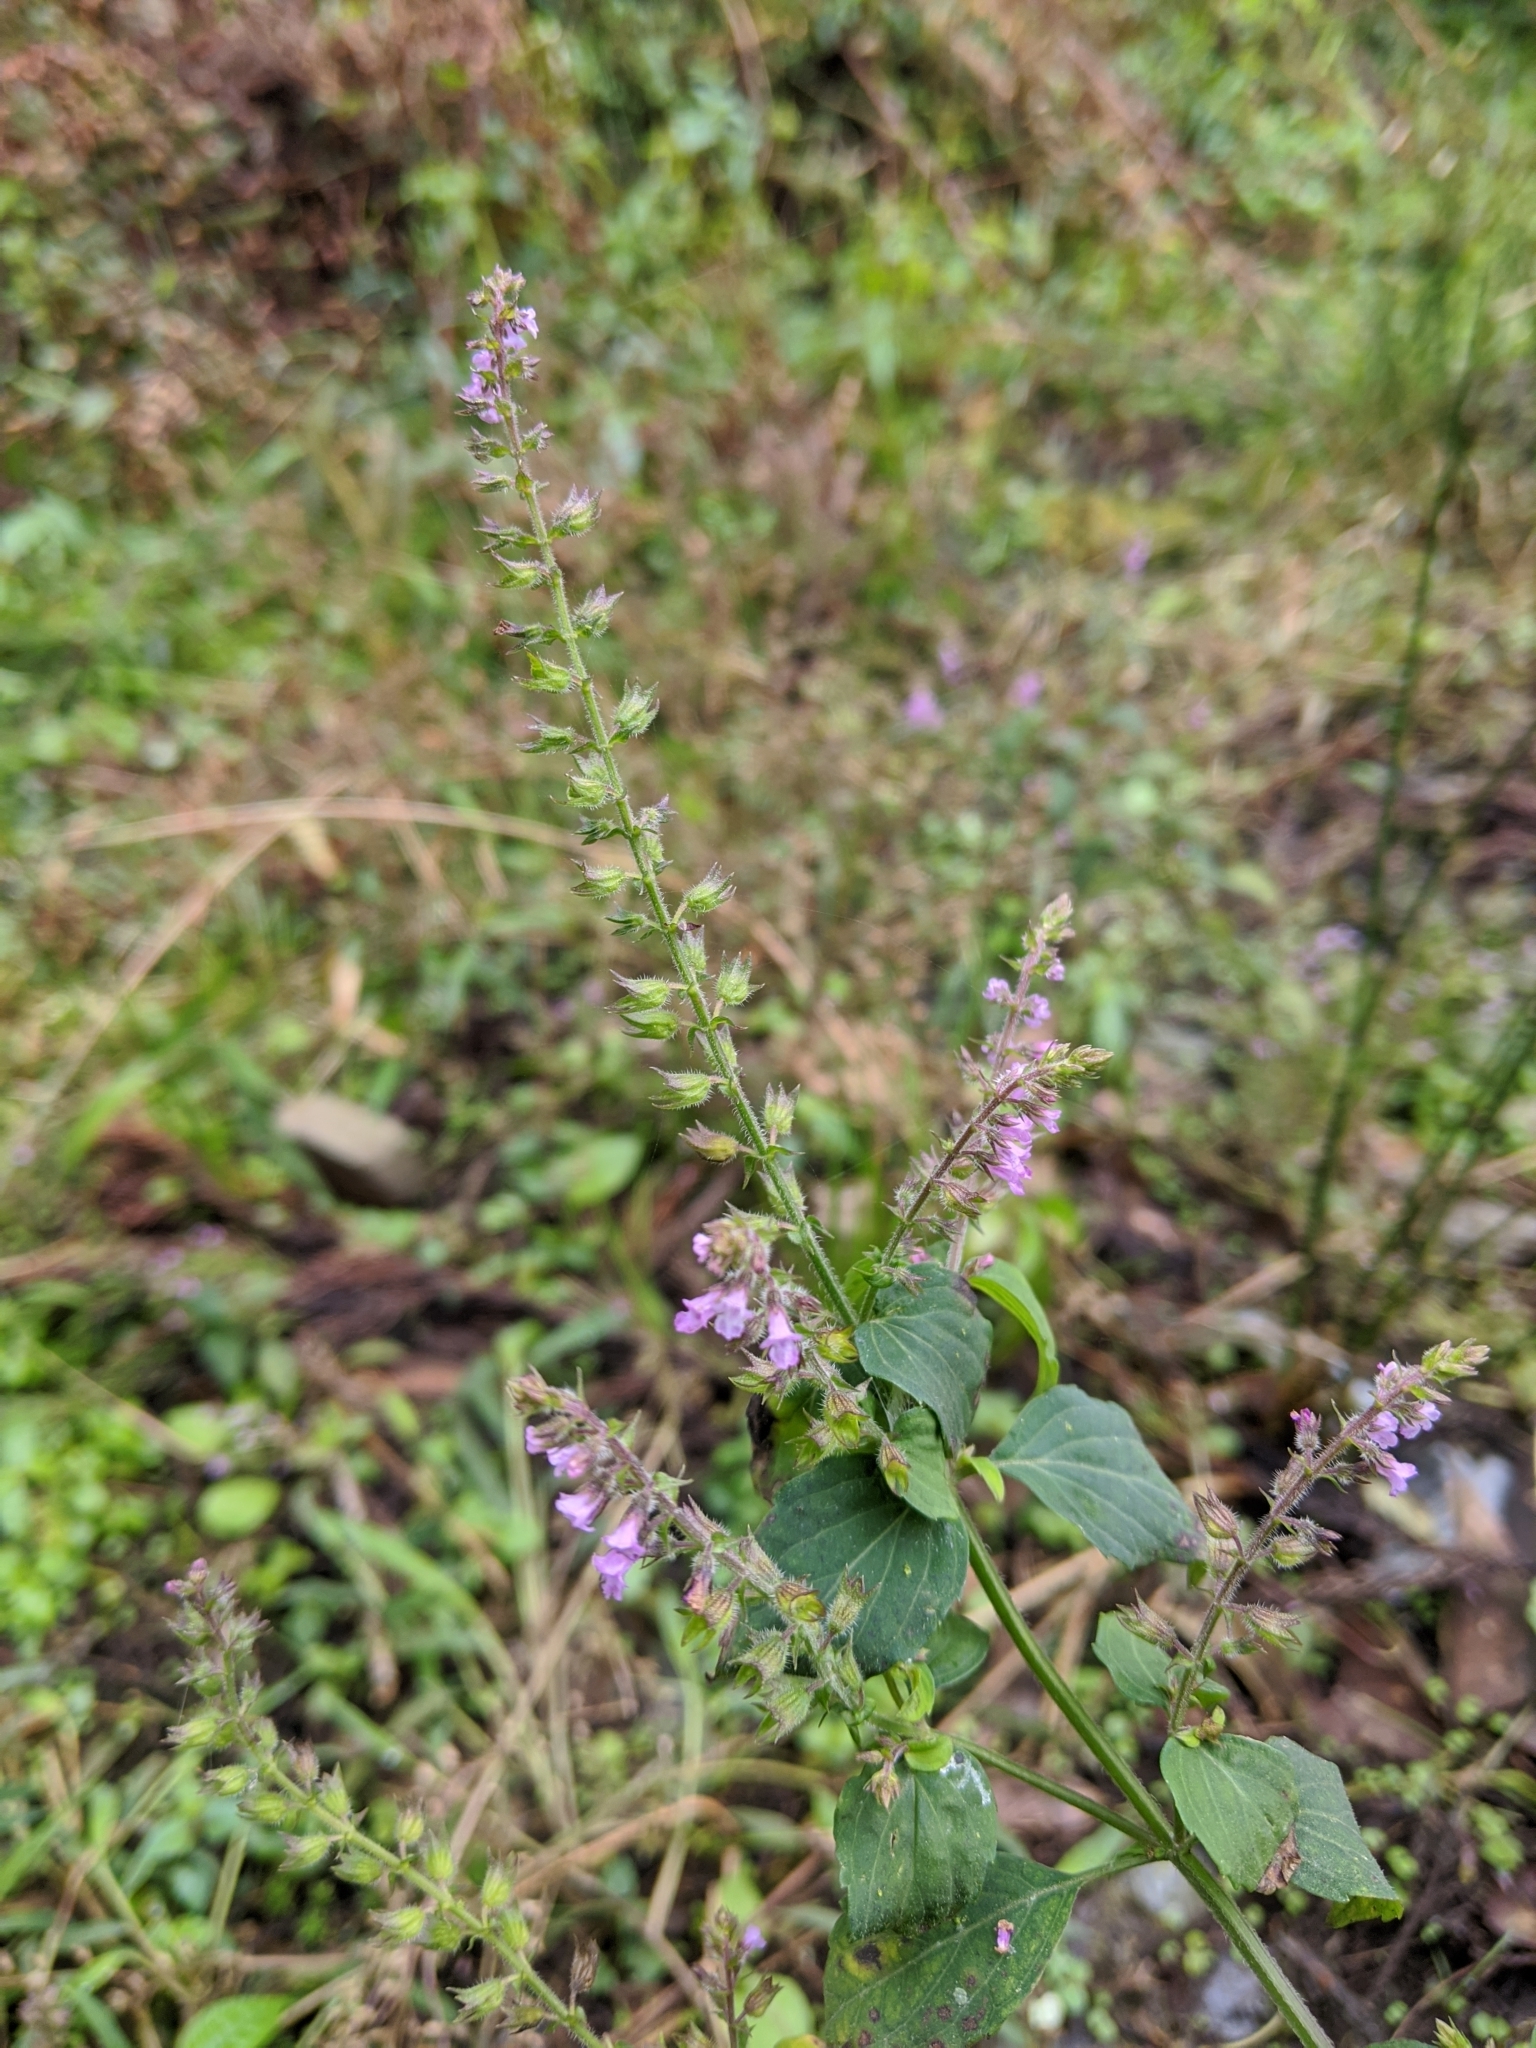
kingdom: Plantae
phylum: Tracheophyta
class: Magnoliopsida
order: Lamiales
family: Lamiaceae
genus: Mosla
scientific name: Mosla scabra
